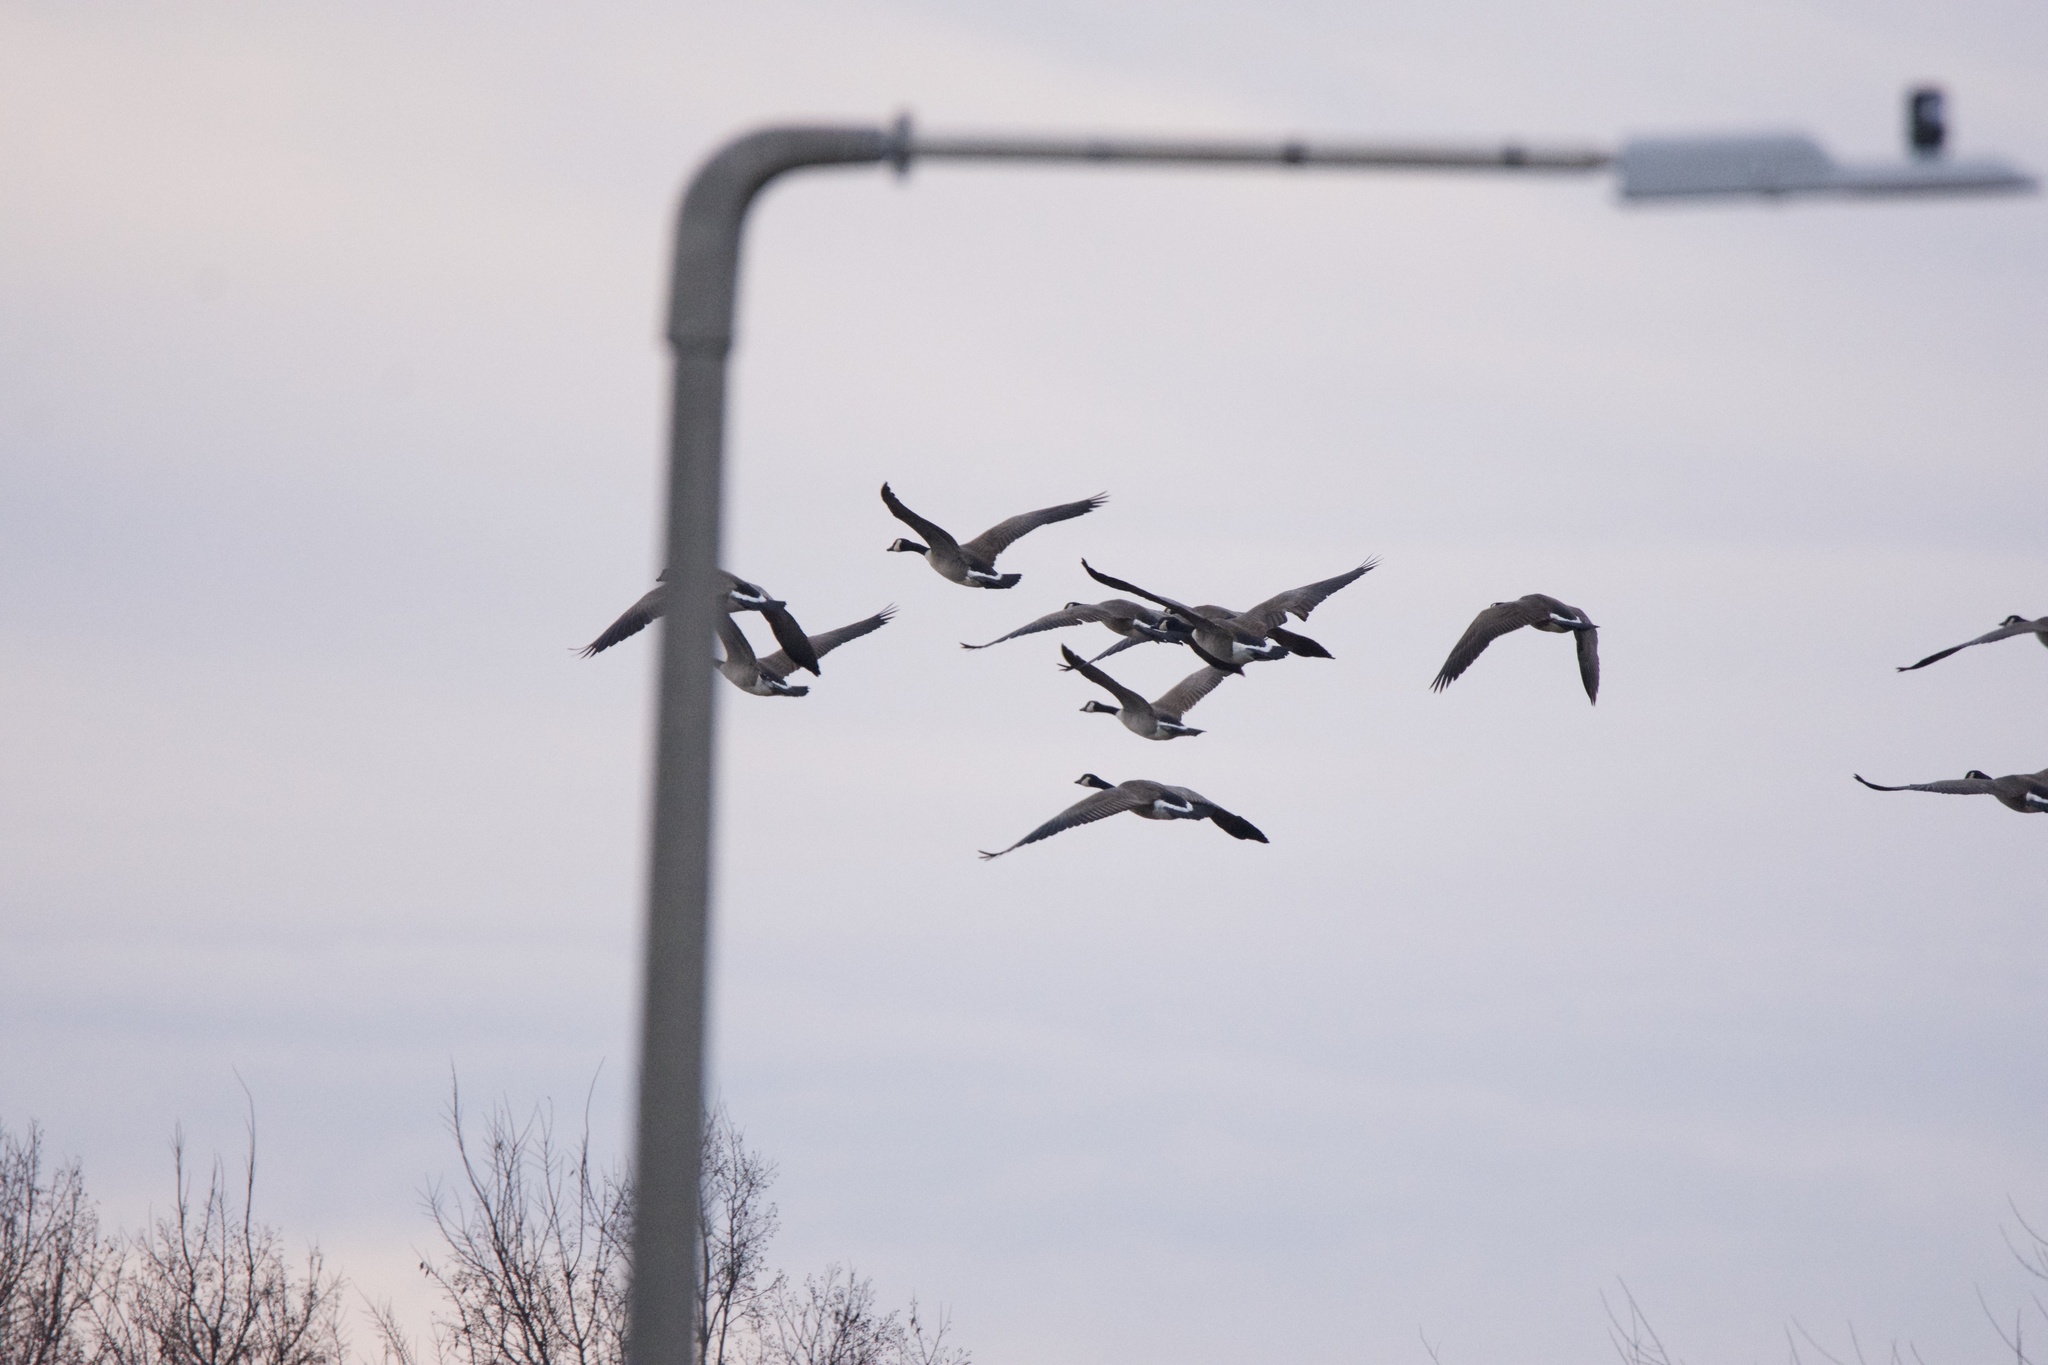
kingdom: Animalia
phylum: Chordata
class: Aves
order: Anseriformes
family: Anatidae
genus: Branta
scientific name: Branta canadensis
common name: Canada goose
